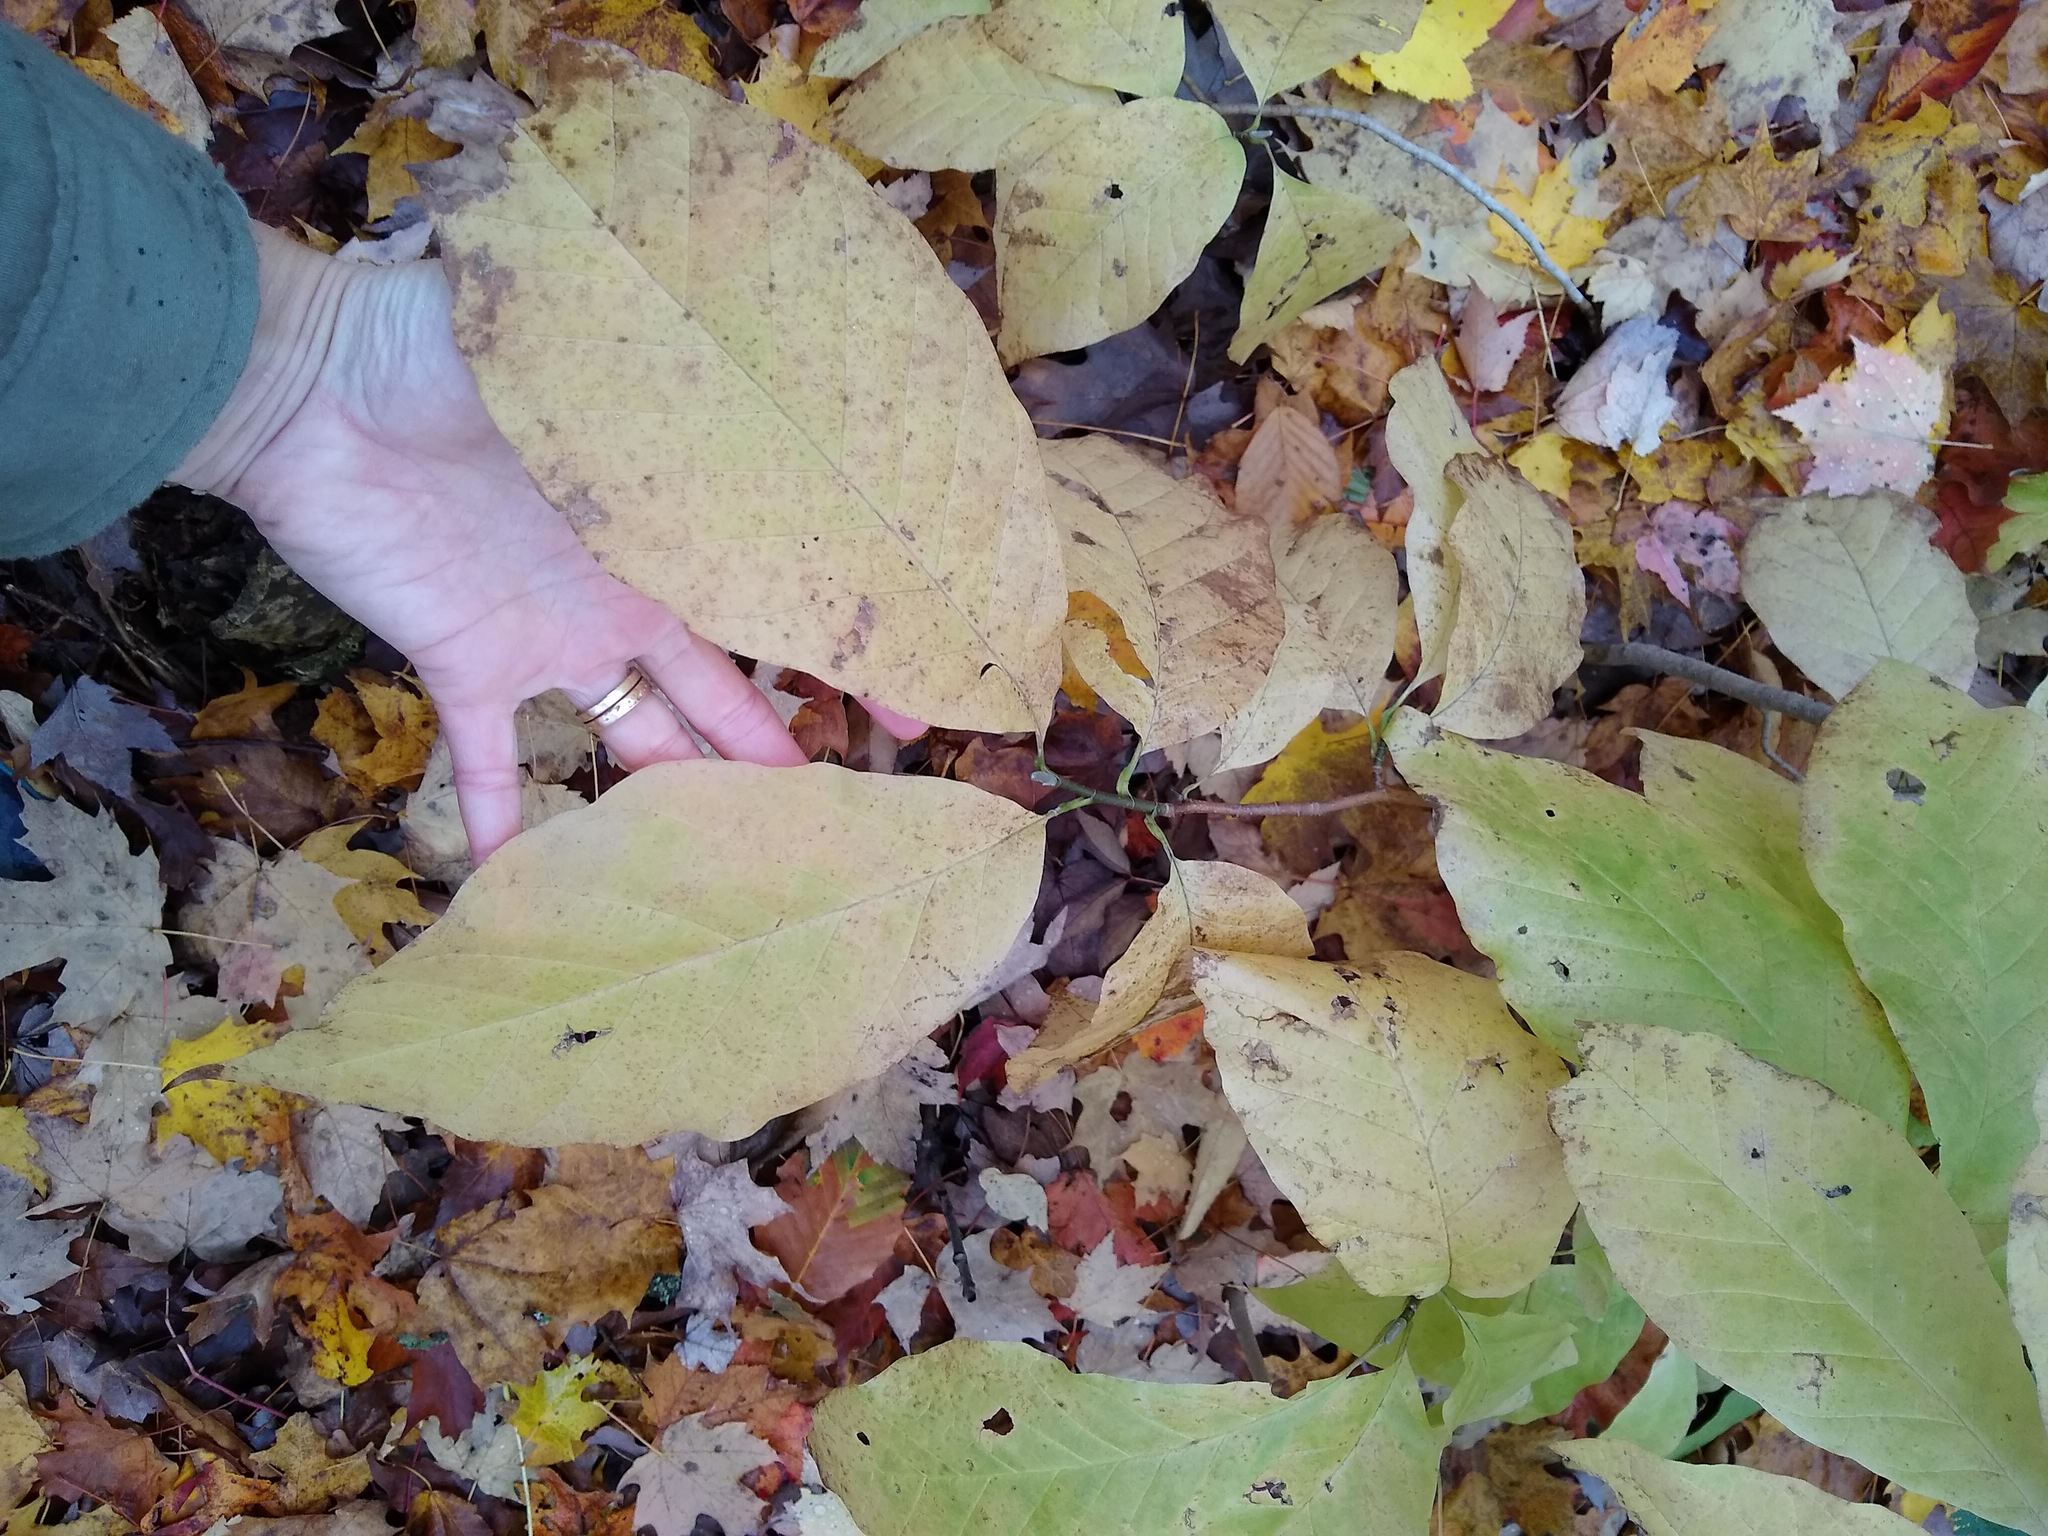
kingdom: Plantae
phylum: Tracheophyta
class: Magnoliopsida
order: Magnoliales
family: Magnoliaceae
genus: Magnolia
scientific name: Magnolia acuminata
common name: Cucumber magnolia
